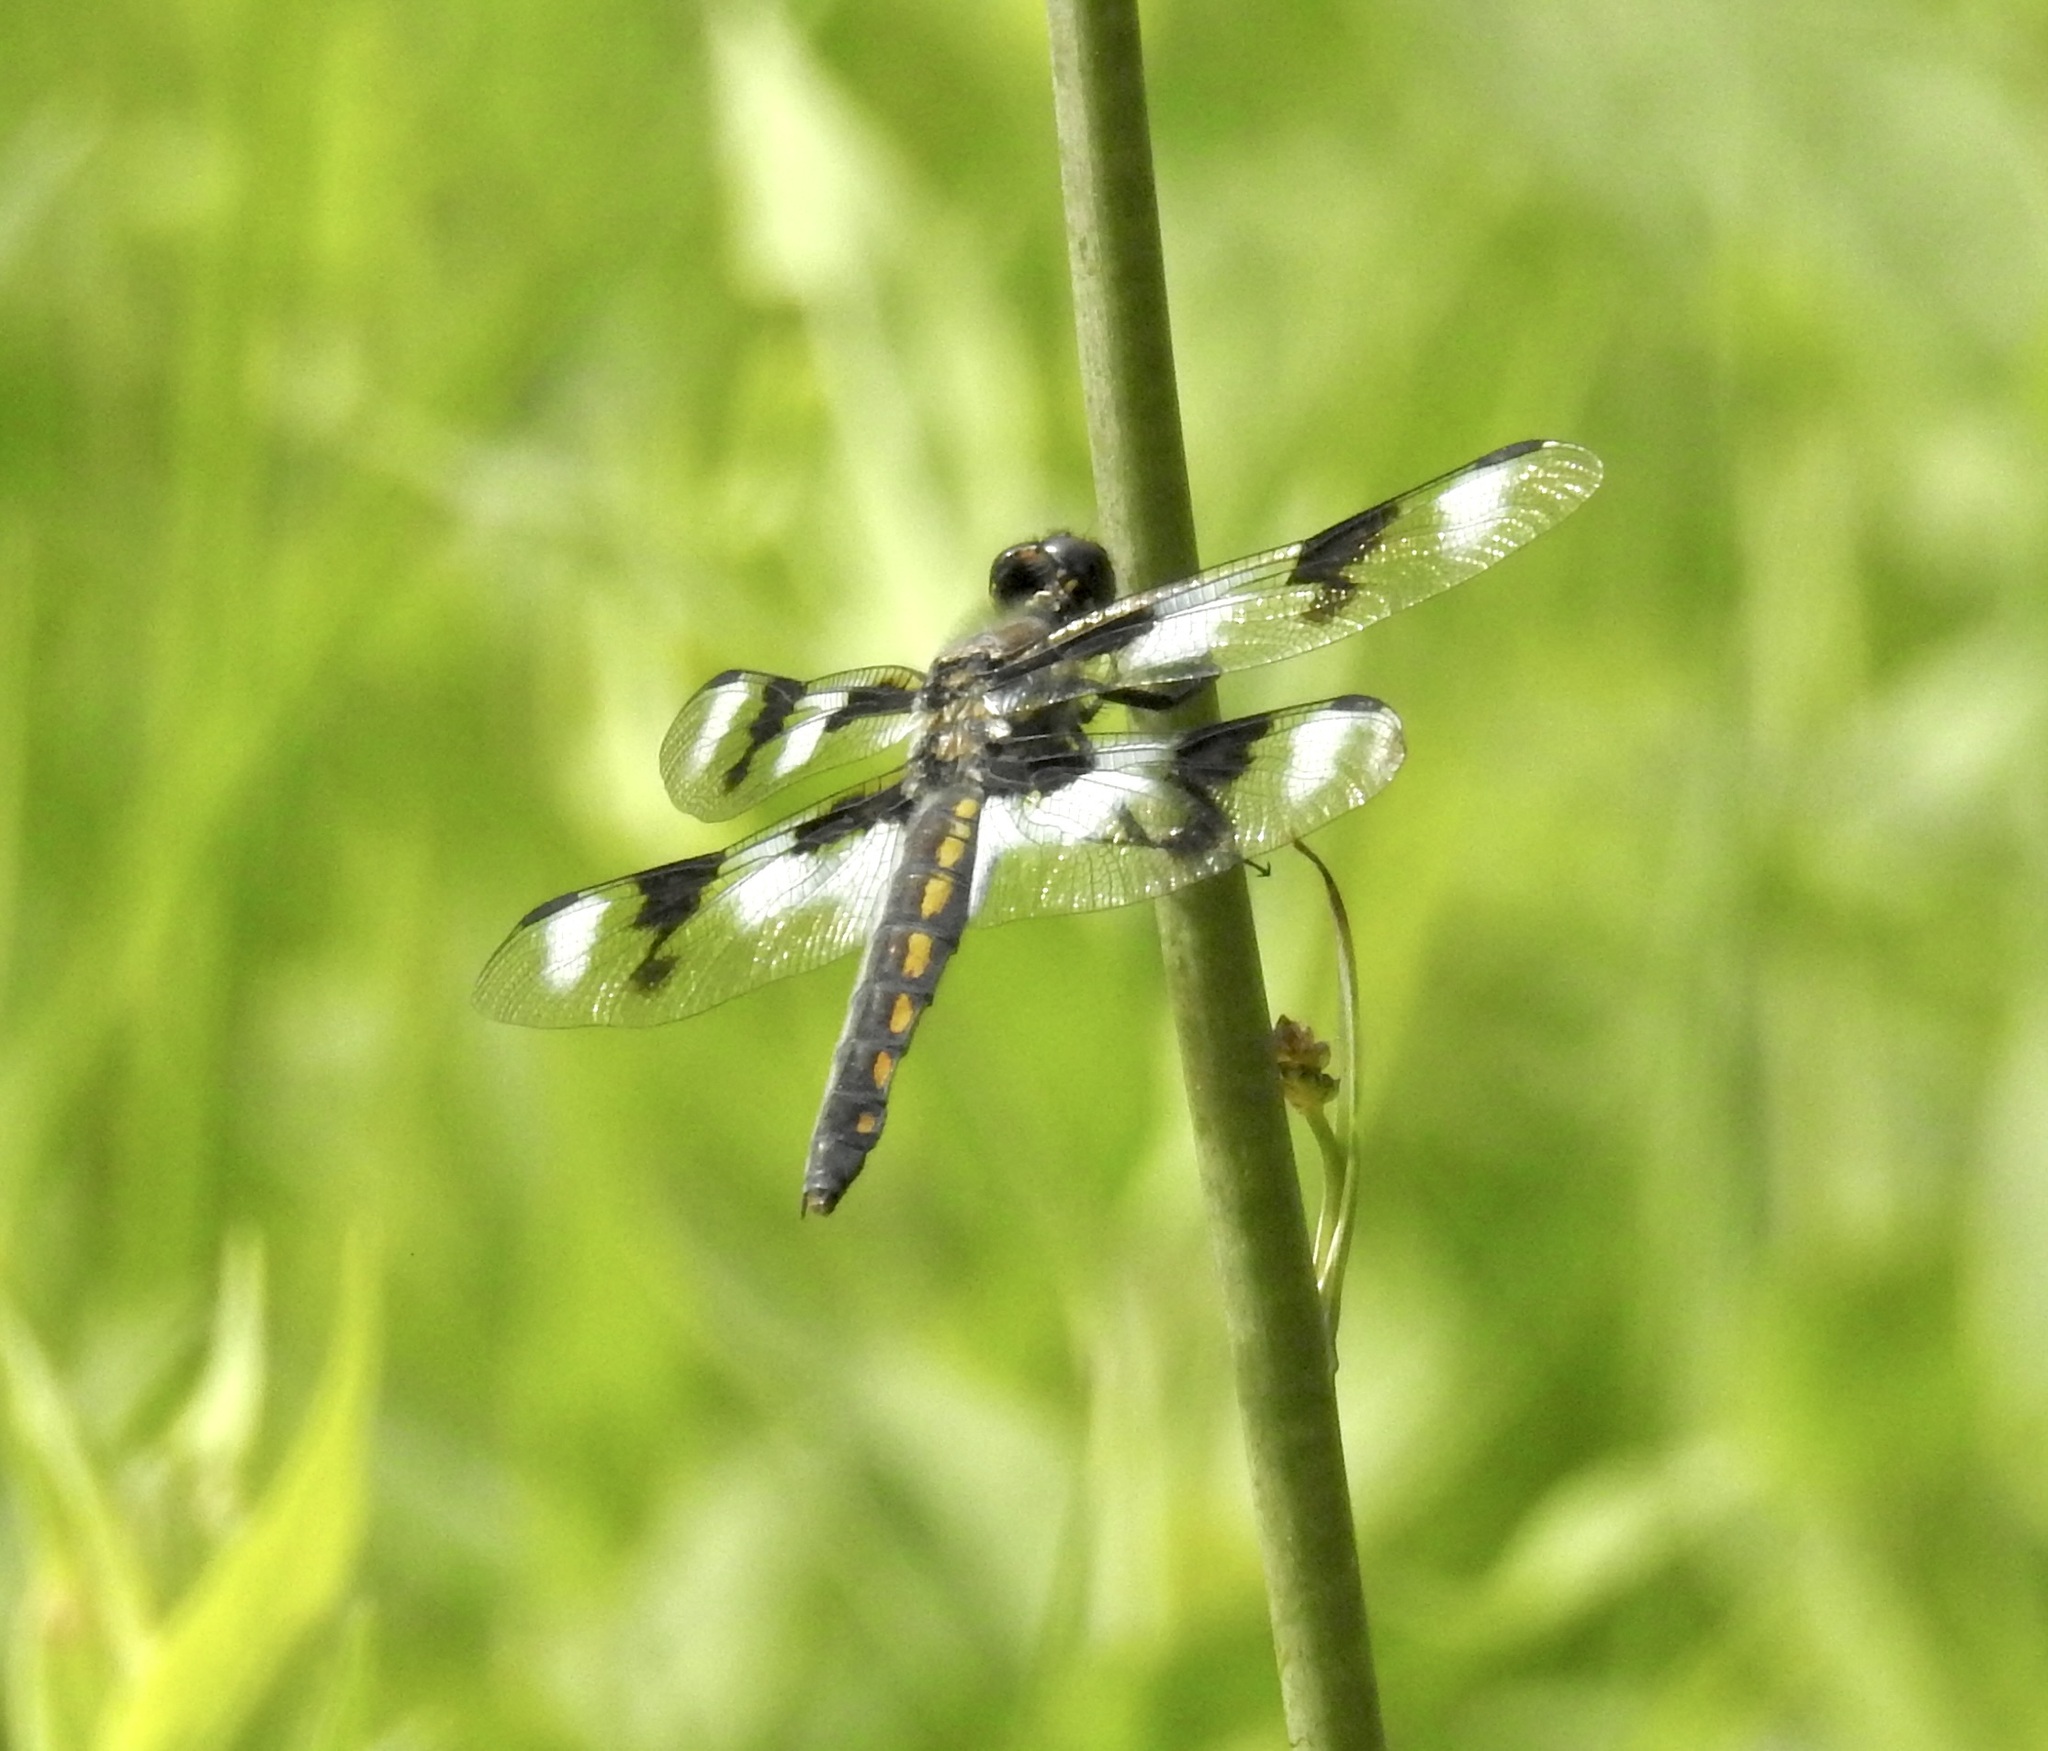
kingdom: Animalia
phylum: Arthropoda
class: Insecta
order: Odonata
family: Libellulidae
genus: Libellula
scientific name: Libellula forensis
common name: Eight-spotted skimmer
